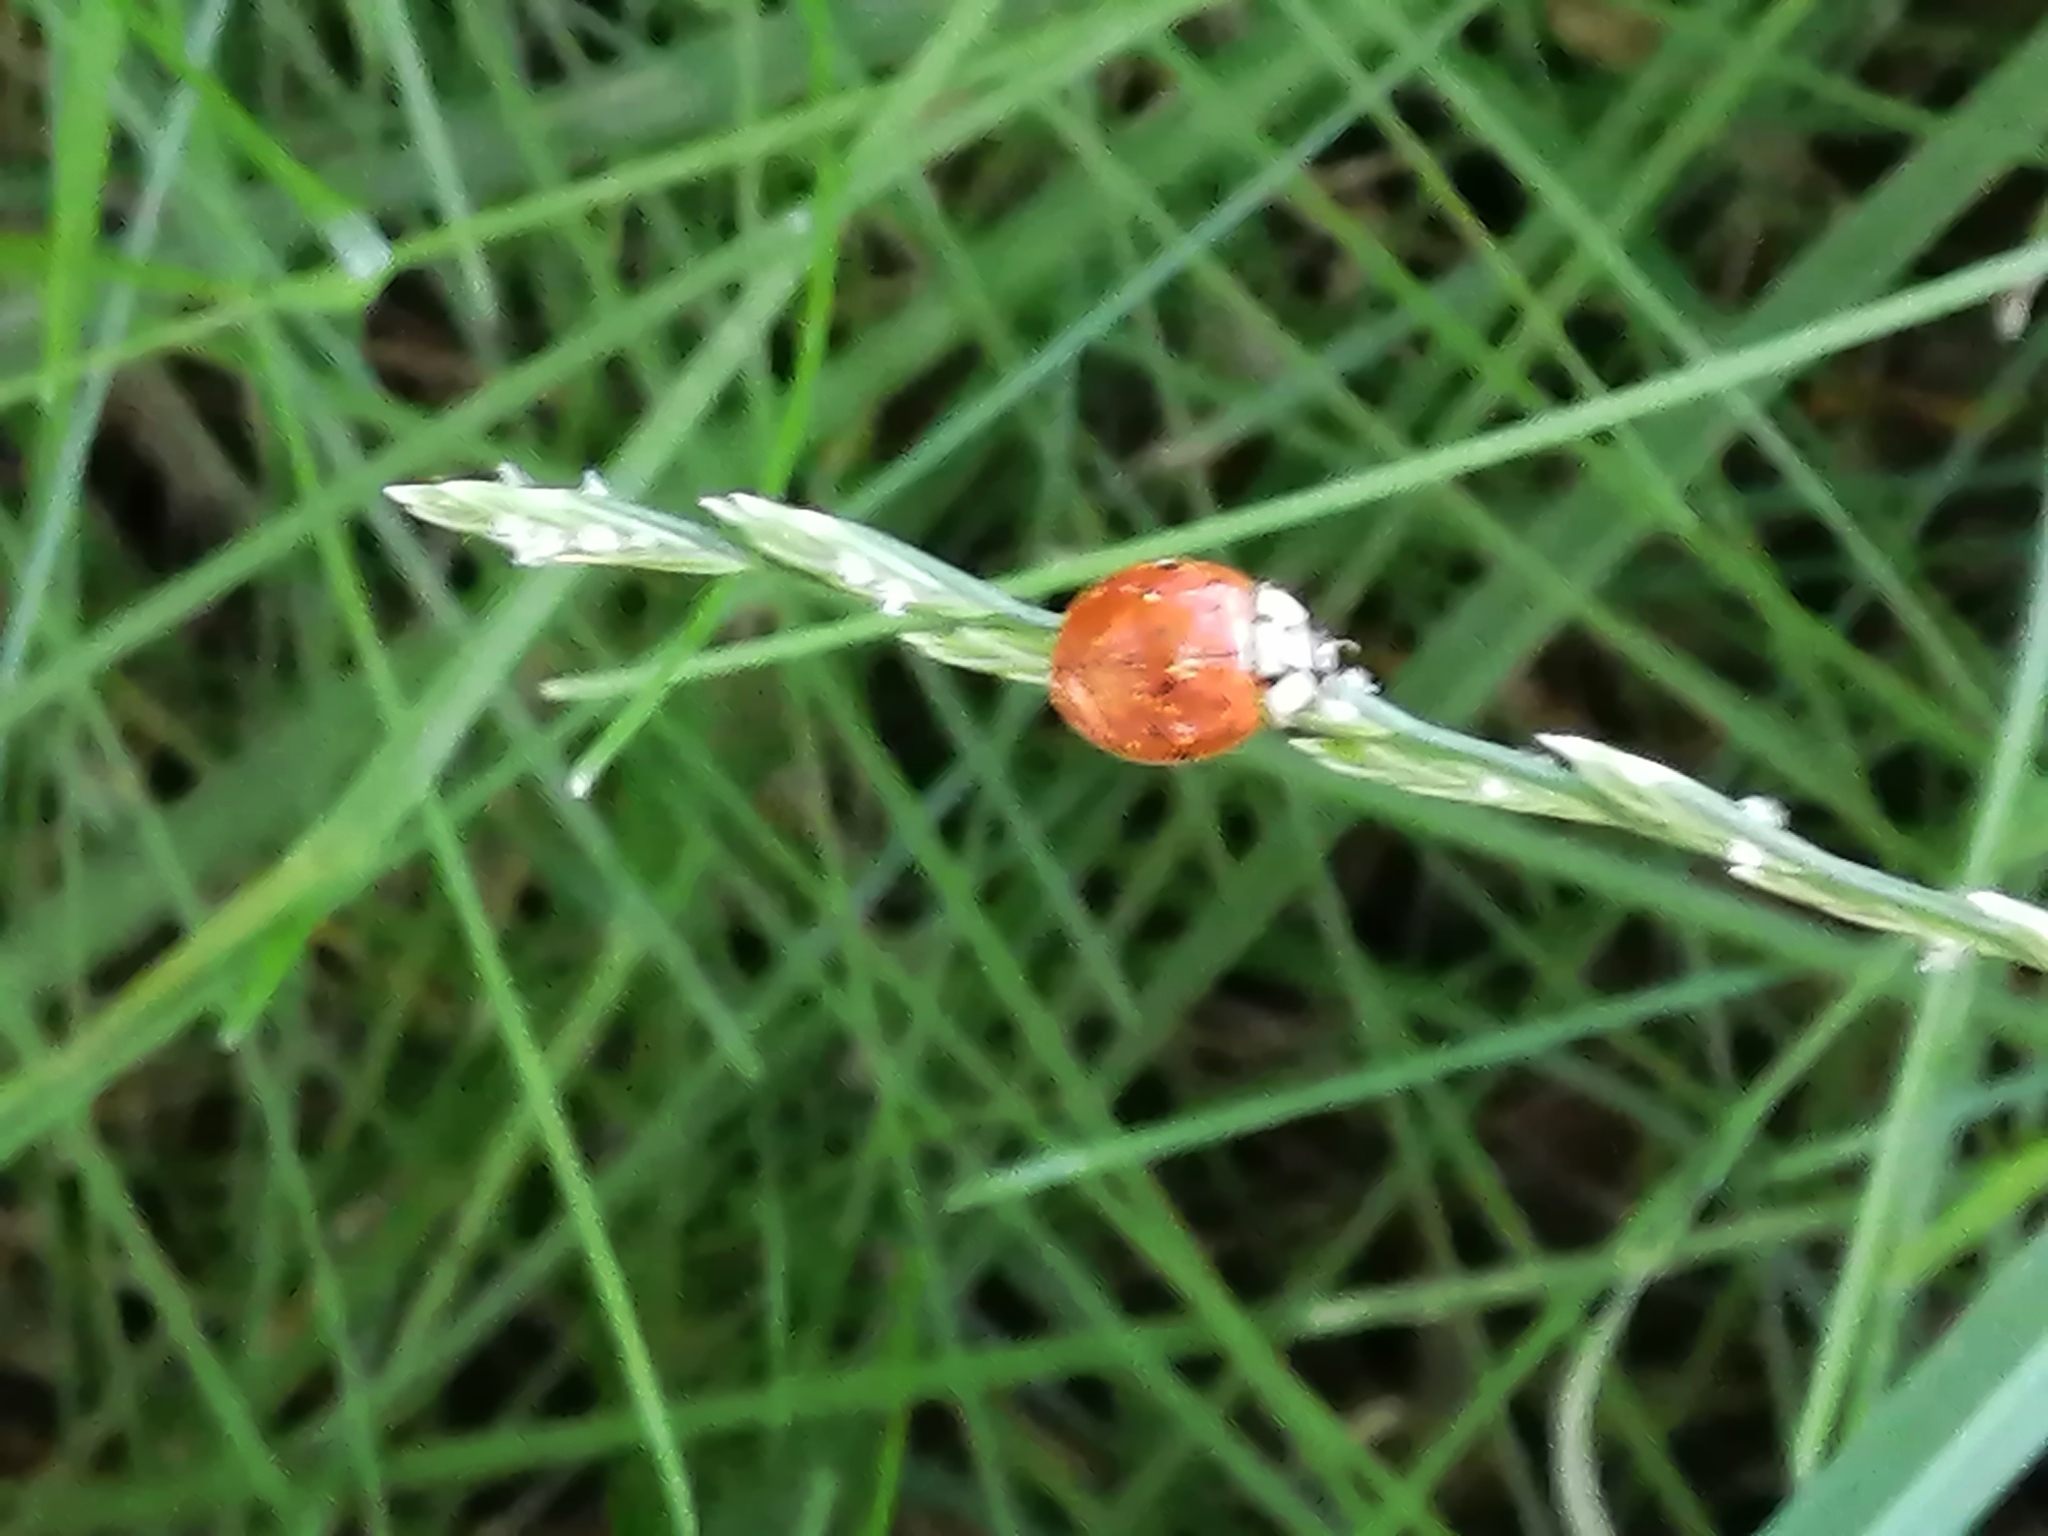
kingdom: Animalia
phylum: Arthropoda
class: Insecta
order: Coleoptera
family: Coccinellidae
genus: Harmonia
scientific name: Harmonia axyridis
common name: Harlequin ladybird
